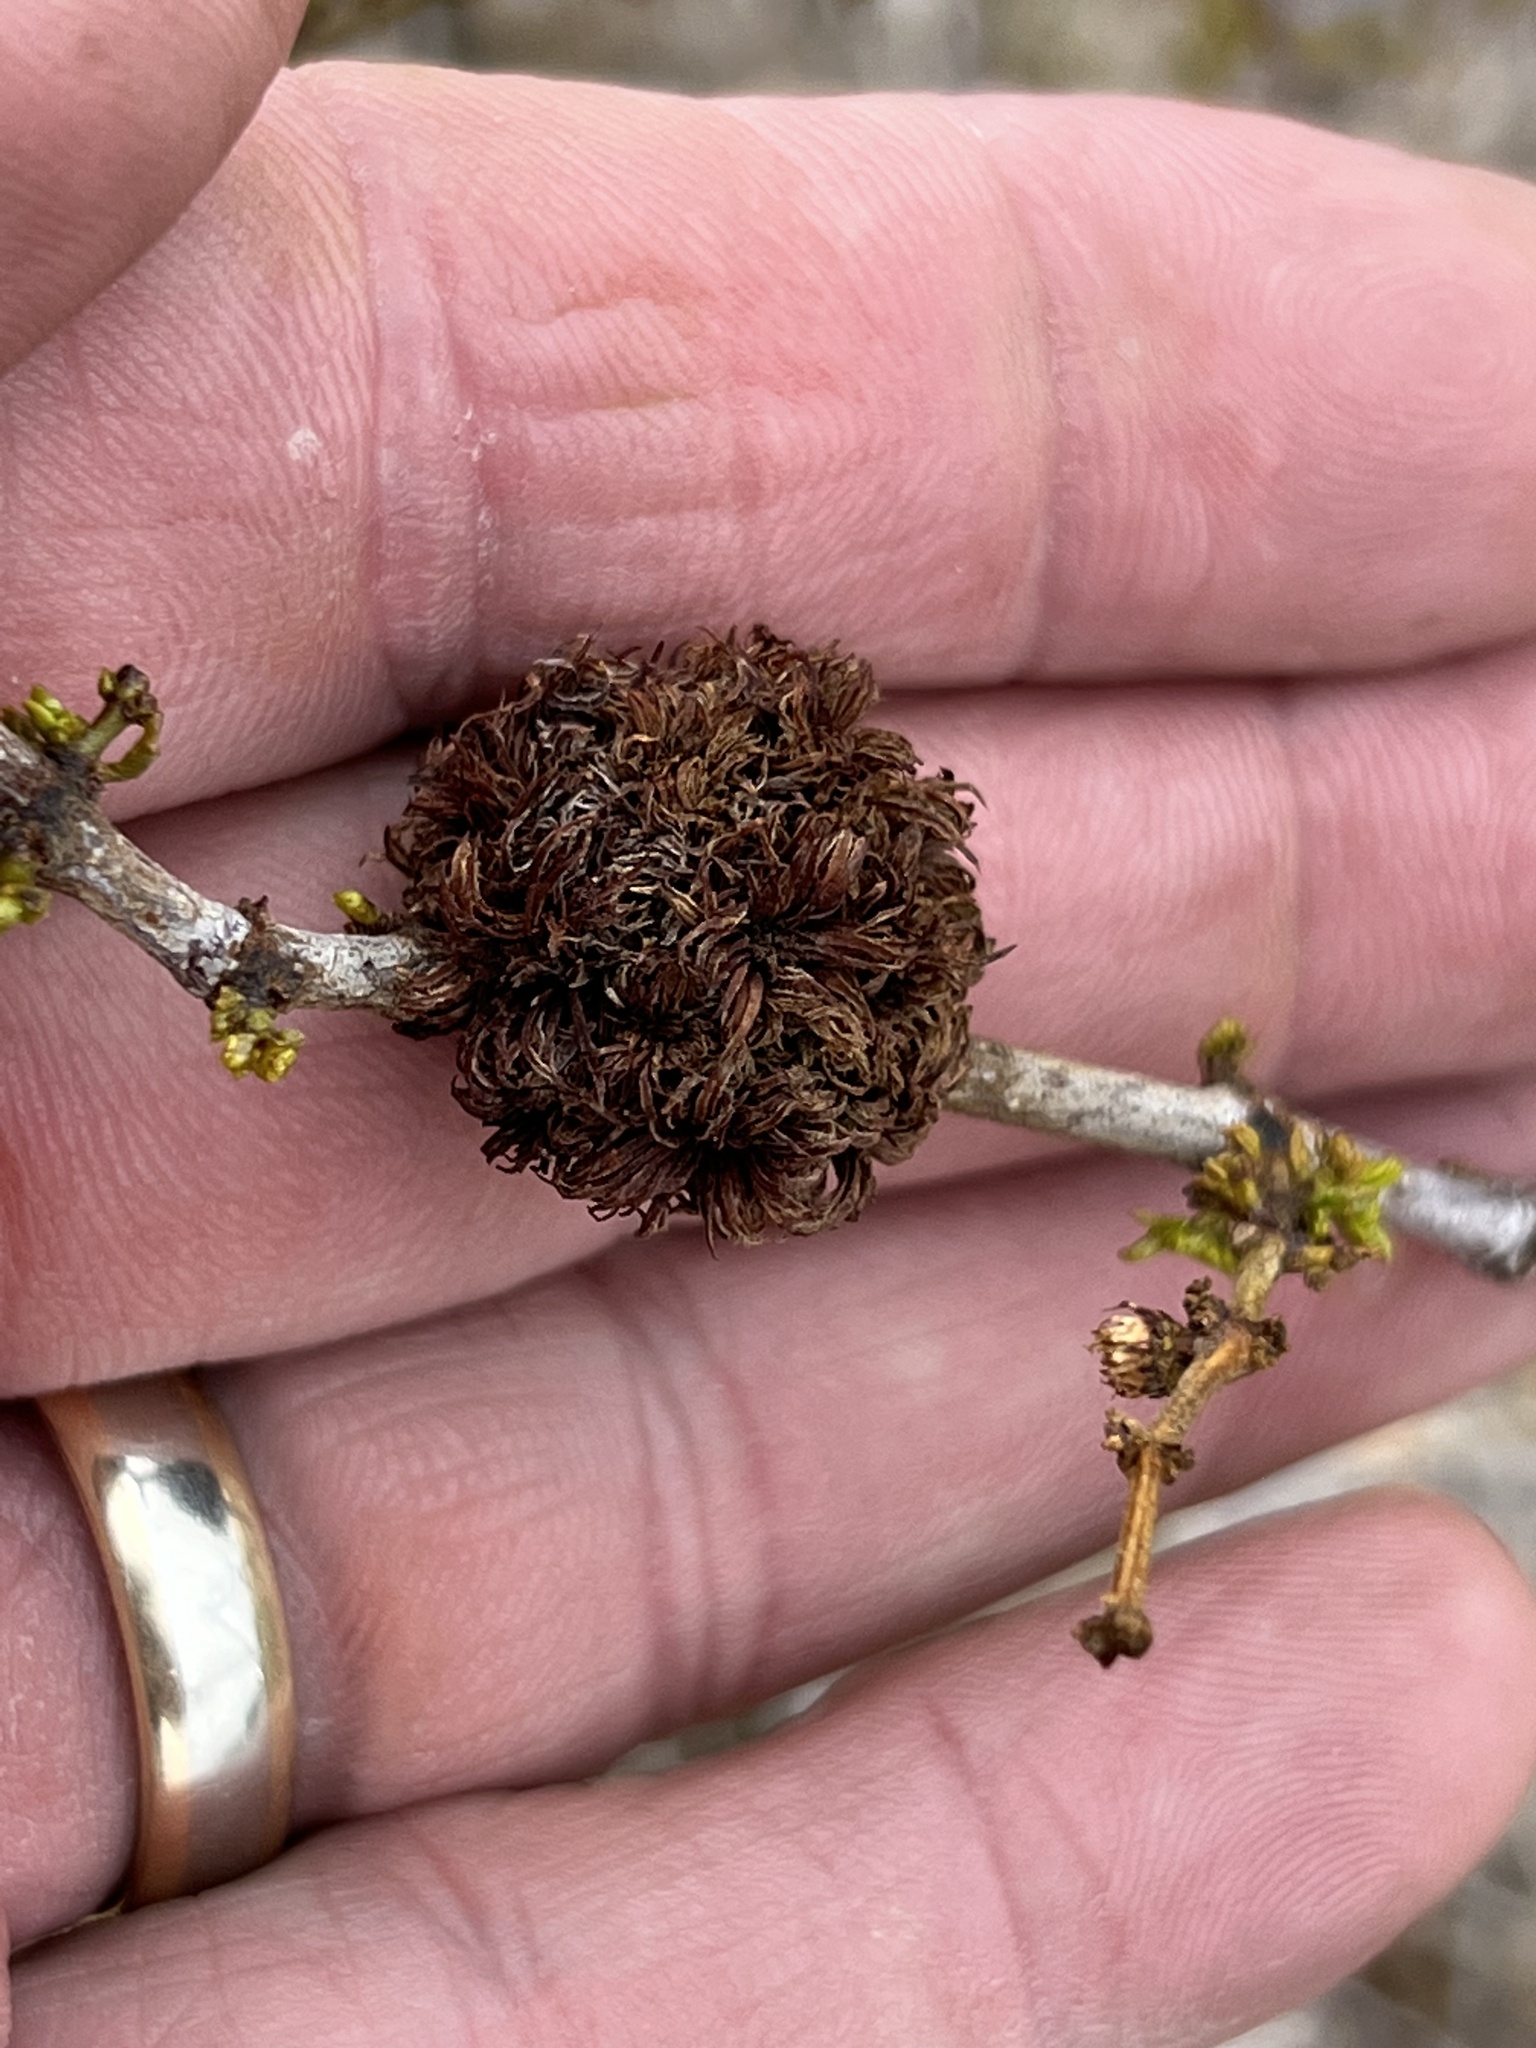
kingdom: Animalia
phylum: Arthropoda
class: Insecta
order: Diptera
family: Cecidomyiidae
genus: Asphondylia
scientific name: Asphondylia auripila
